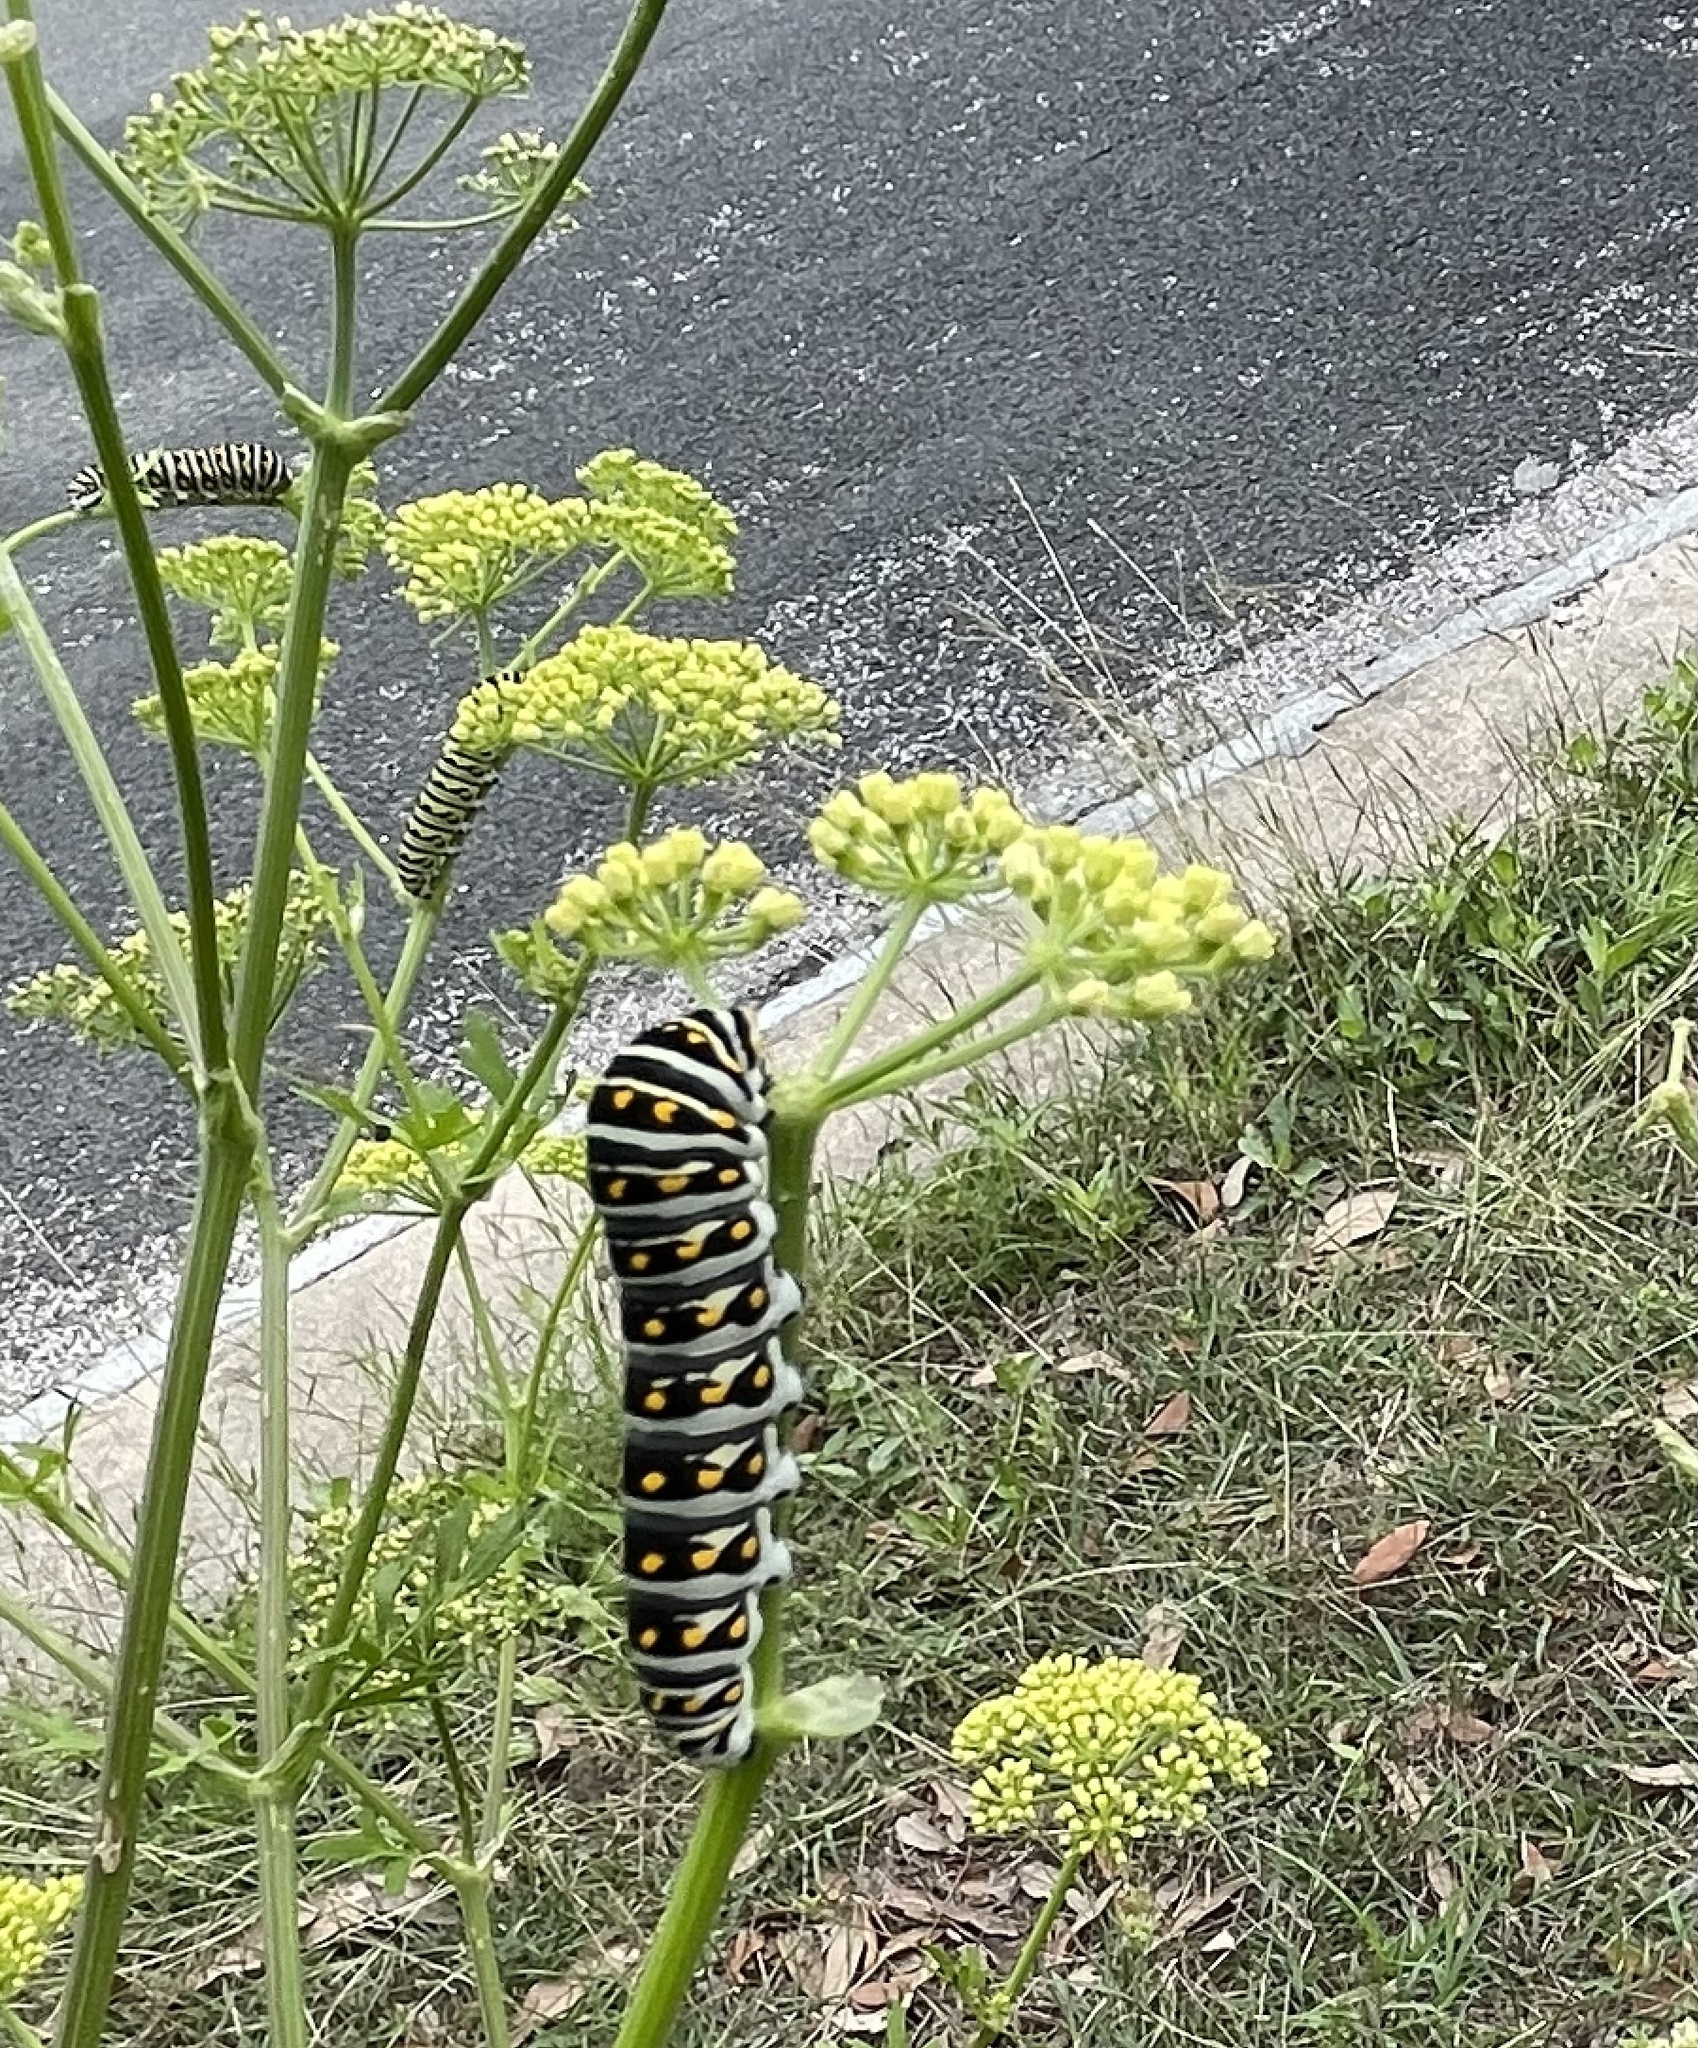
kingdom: Animalia
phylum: Arthropoda
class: Insecta
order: Lepidoptera
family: Papilionidae
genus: Papilio
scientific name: Papilio polyxenes
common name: Black swallowtail
